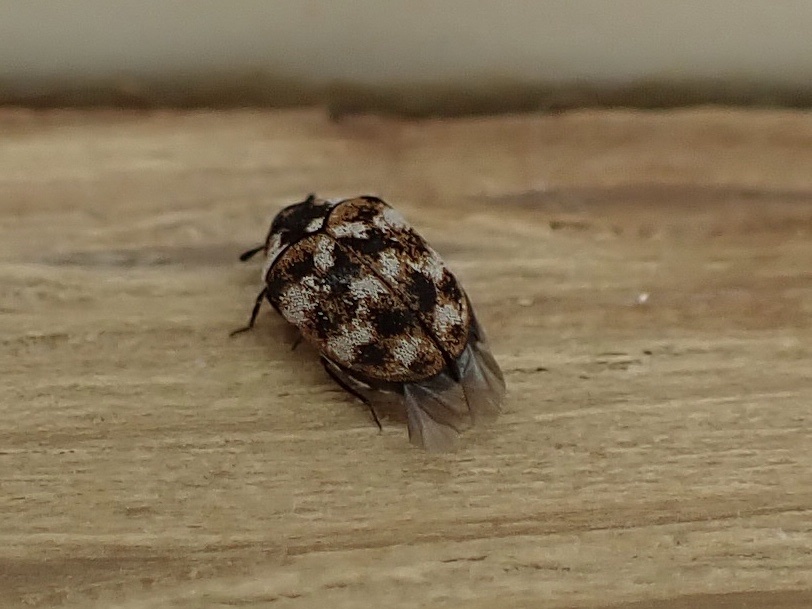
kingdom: Animalia
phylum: Arthropoda
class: Insecta
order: Coleoptera
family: Dermestidae
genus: Anthrenus
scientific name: Anthrenus verbasci
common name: Varied carpet beetle
